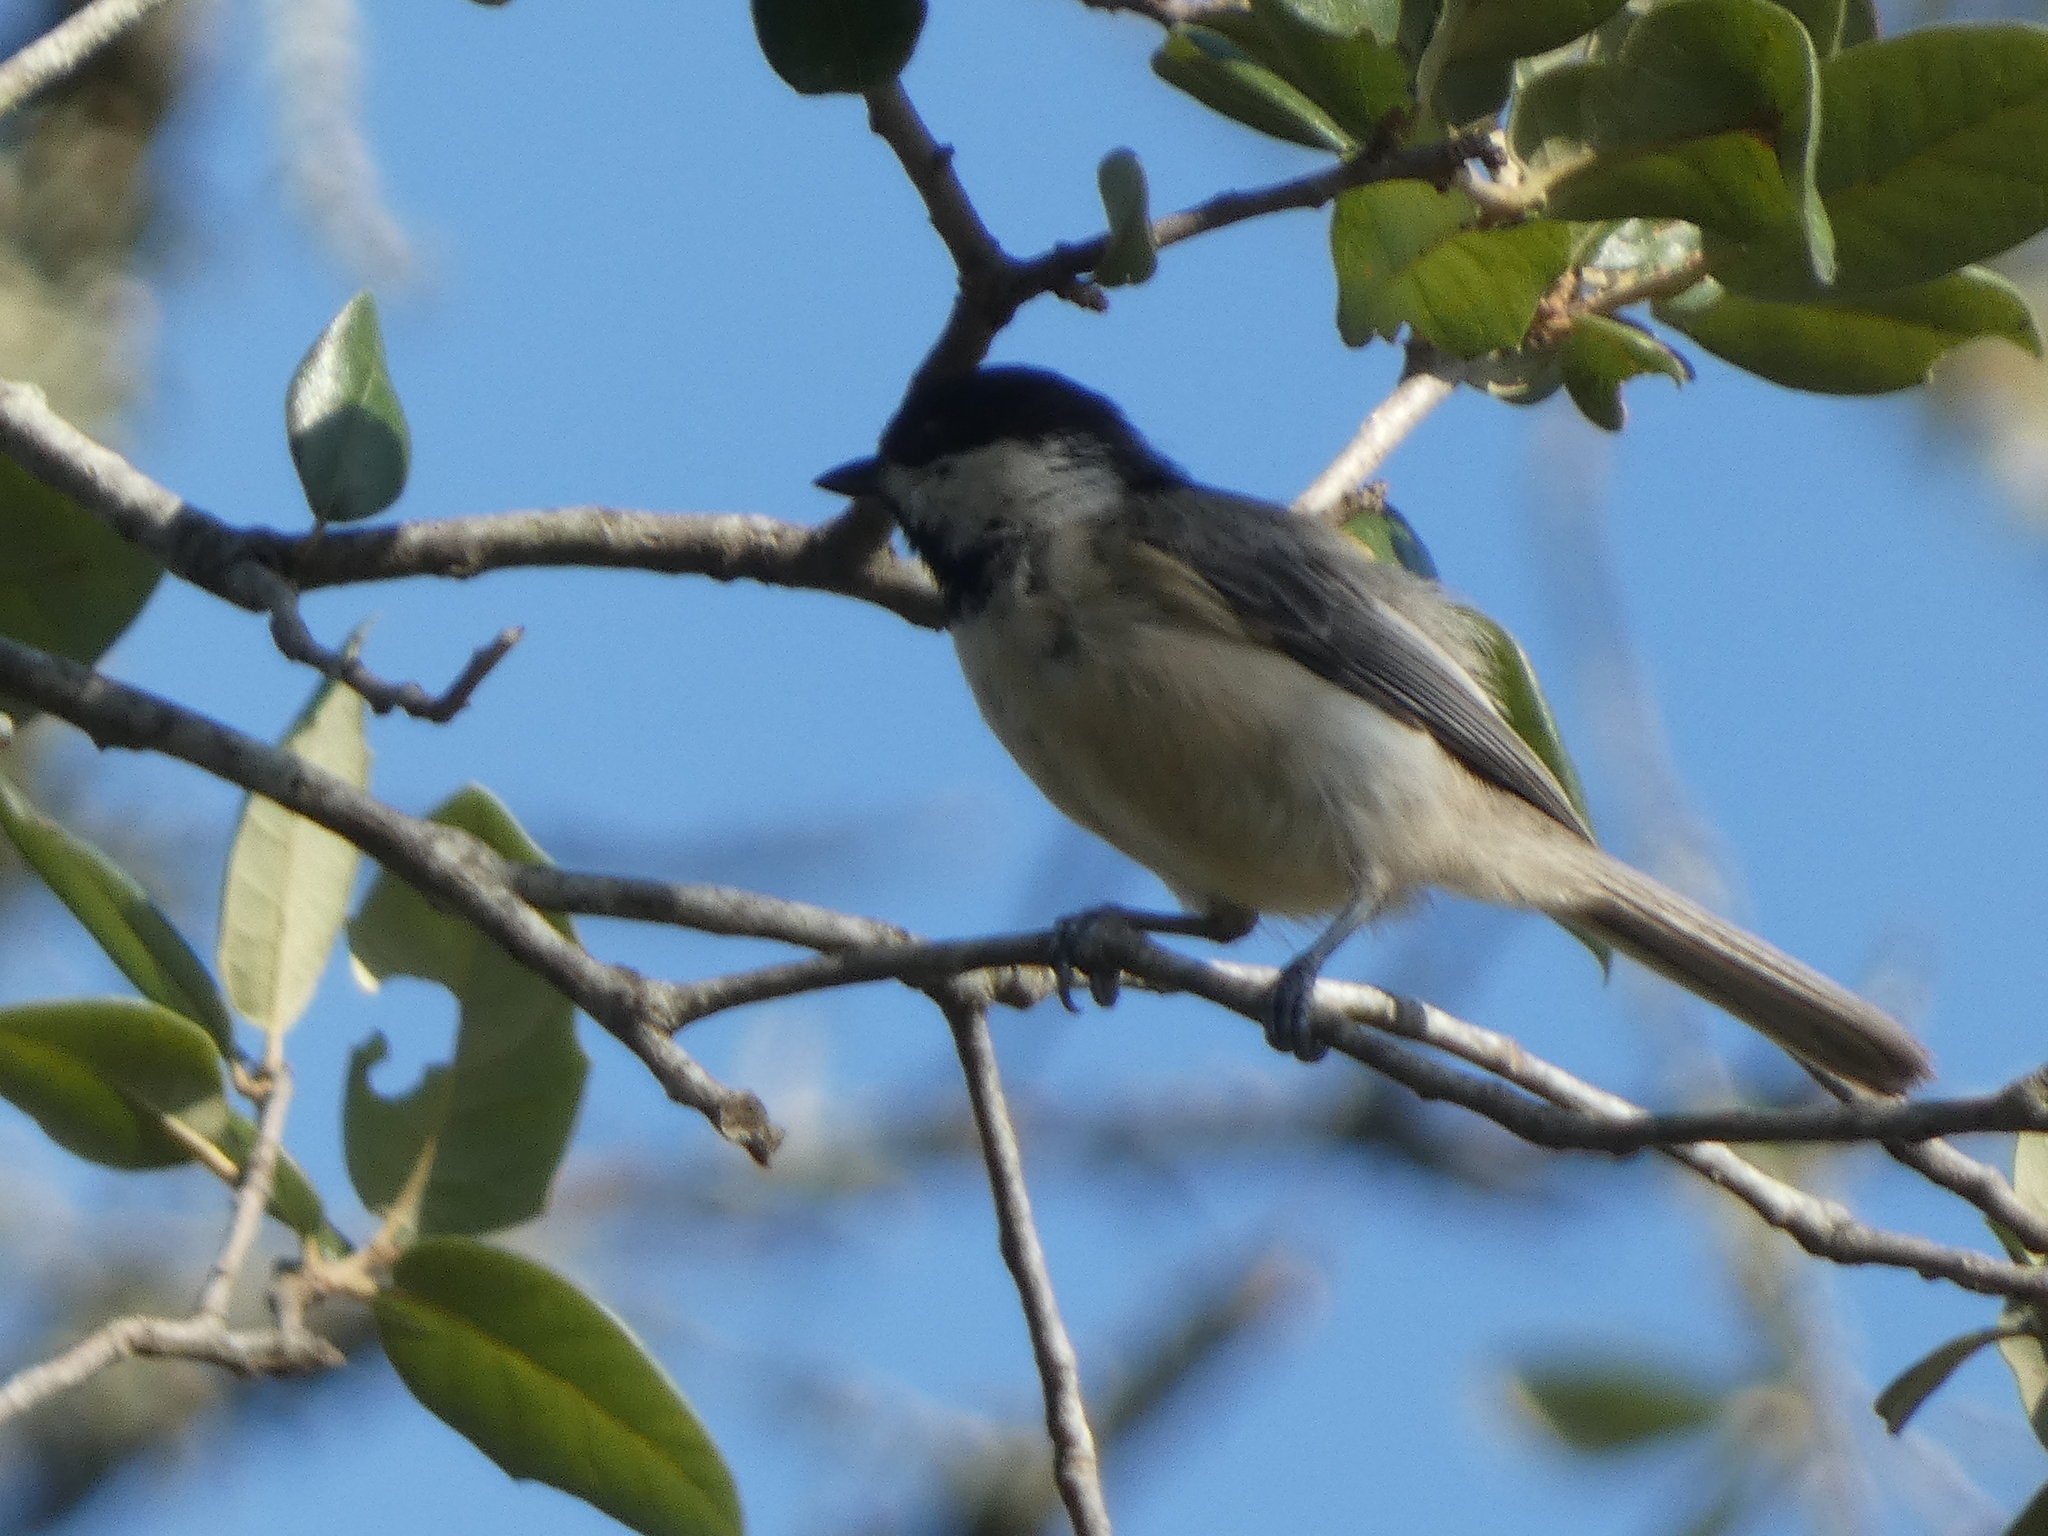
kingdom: Animalia
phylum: Chordata
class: Aves
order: Passeriformes
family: Paridae
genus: Poecile
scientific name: Poecile carolinensis
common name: Carolina chickadee
